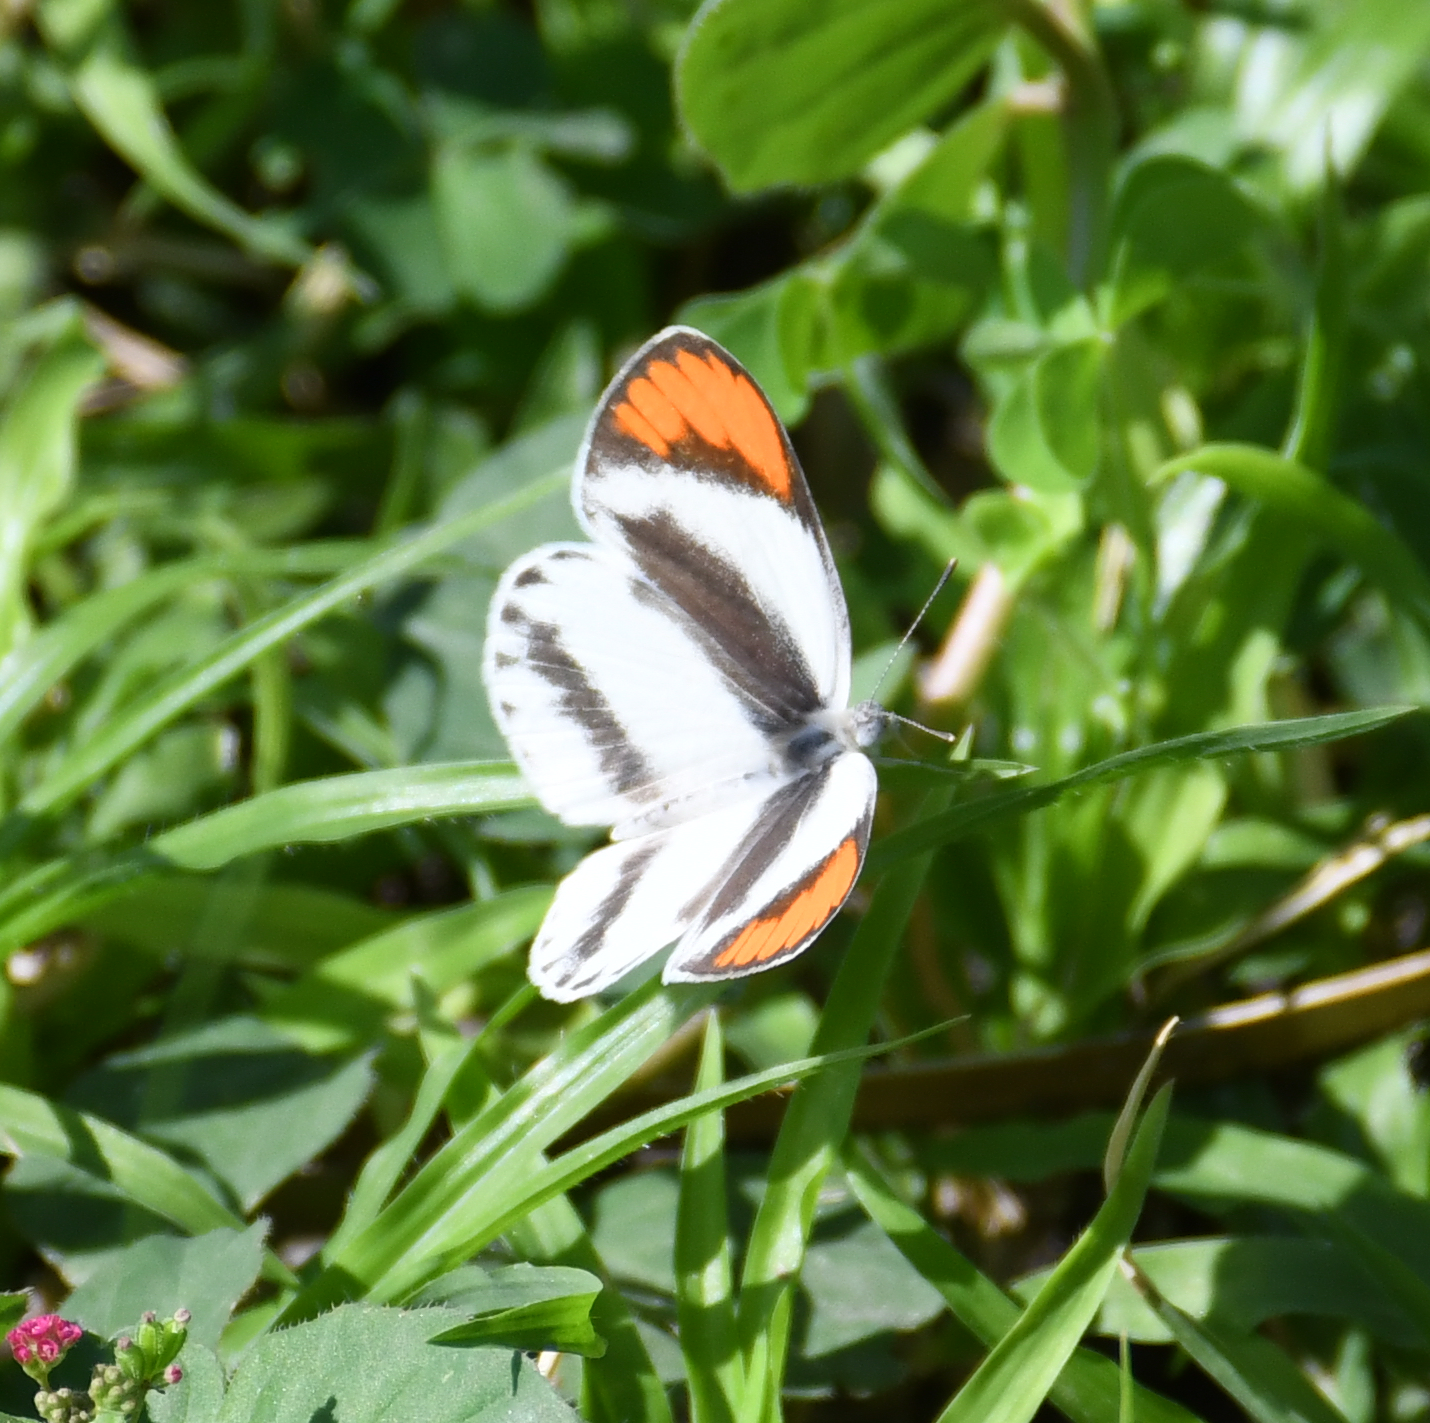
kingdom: Animalia
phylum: Arthropoda
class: Insecta
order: Lepidoptera
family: Pieridae
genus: Colotis
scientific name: Colotis euippe
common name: Round-winged orange tip
